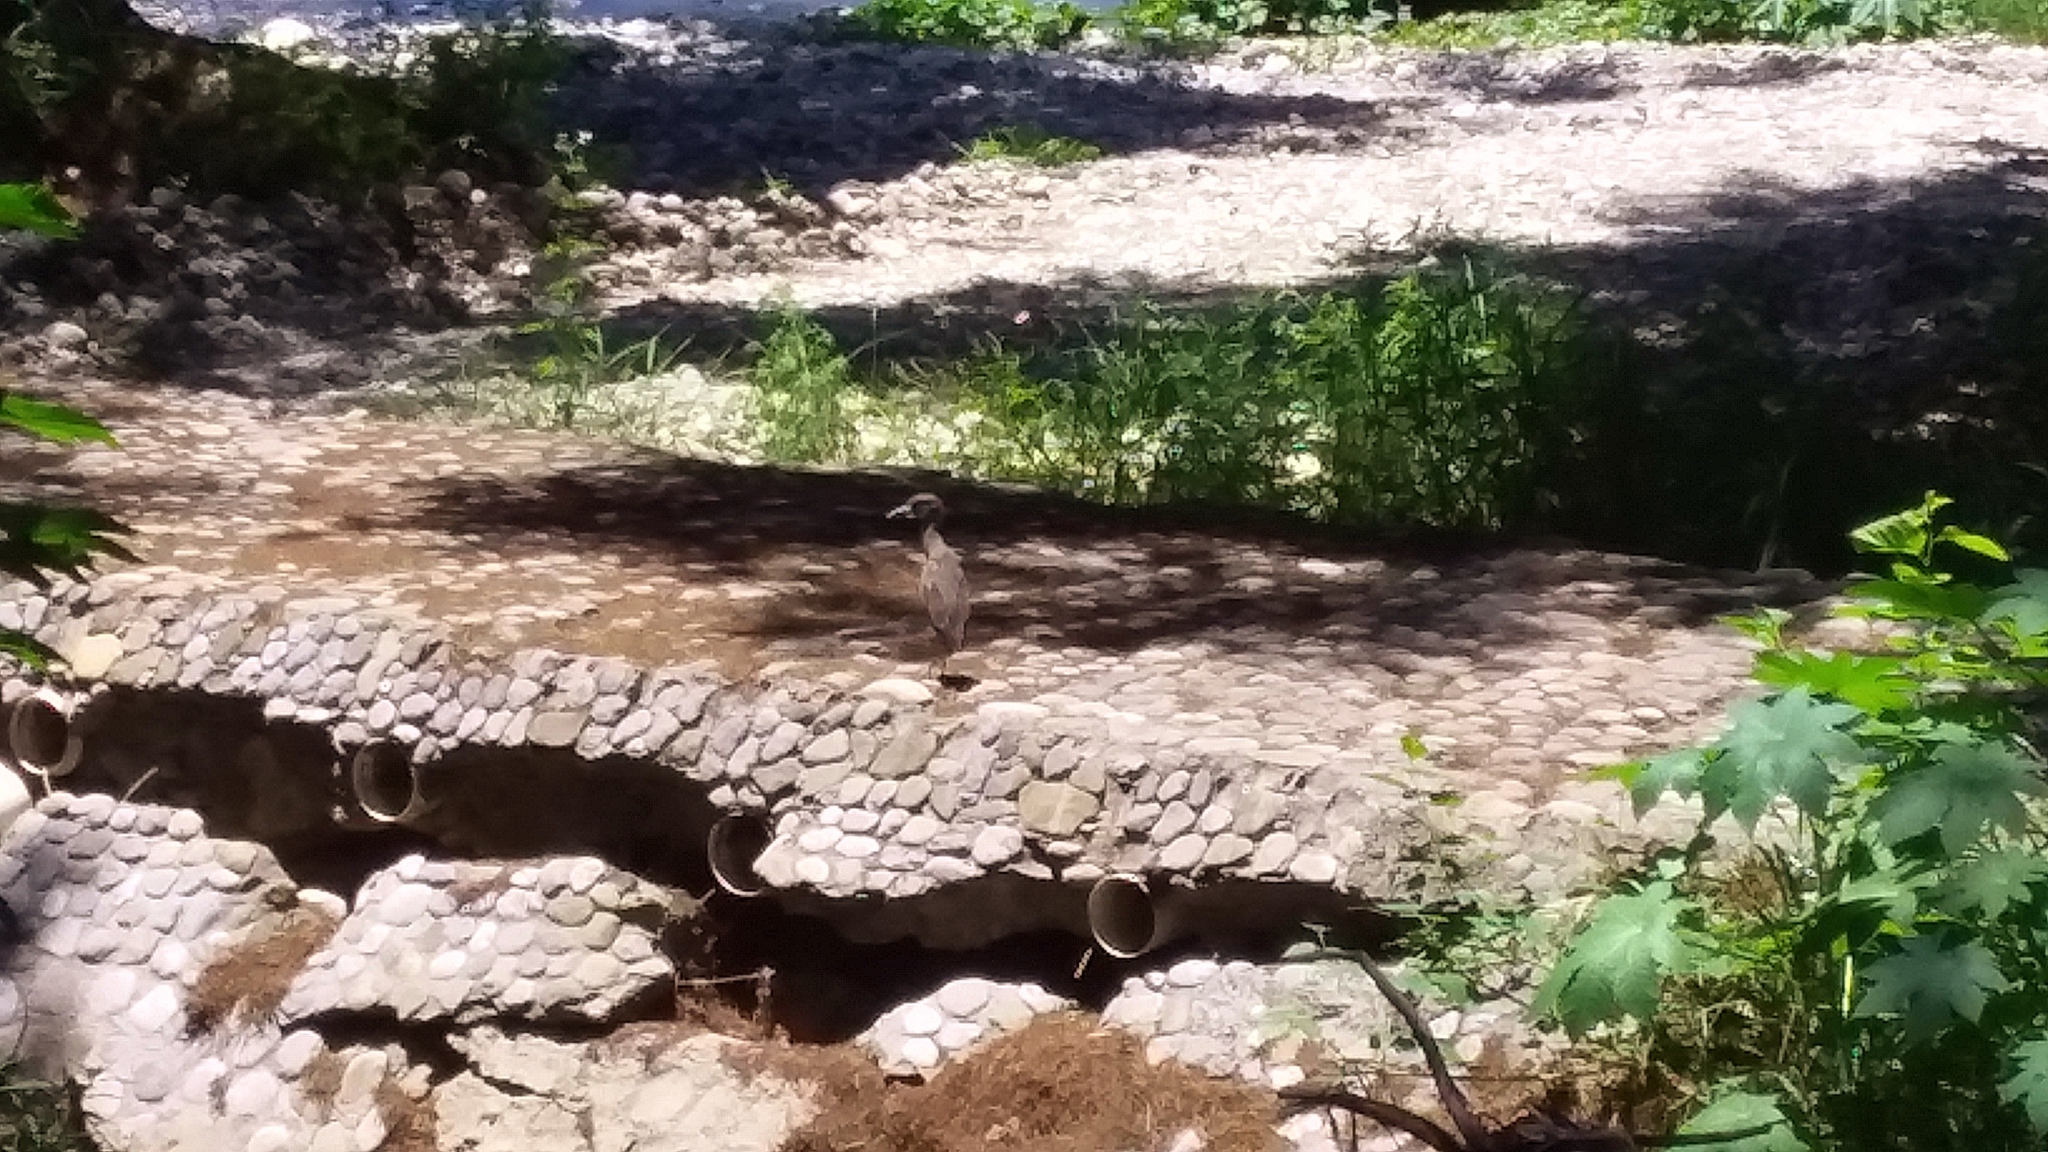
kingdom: Animalia
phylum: Chordata
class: Aves
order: Pelecaniformes
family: Ardeidae
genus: Nyctanassa
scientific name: Nyctanassa violacea
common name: Yellow-crowned night heron
